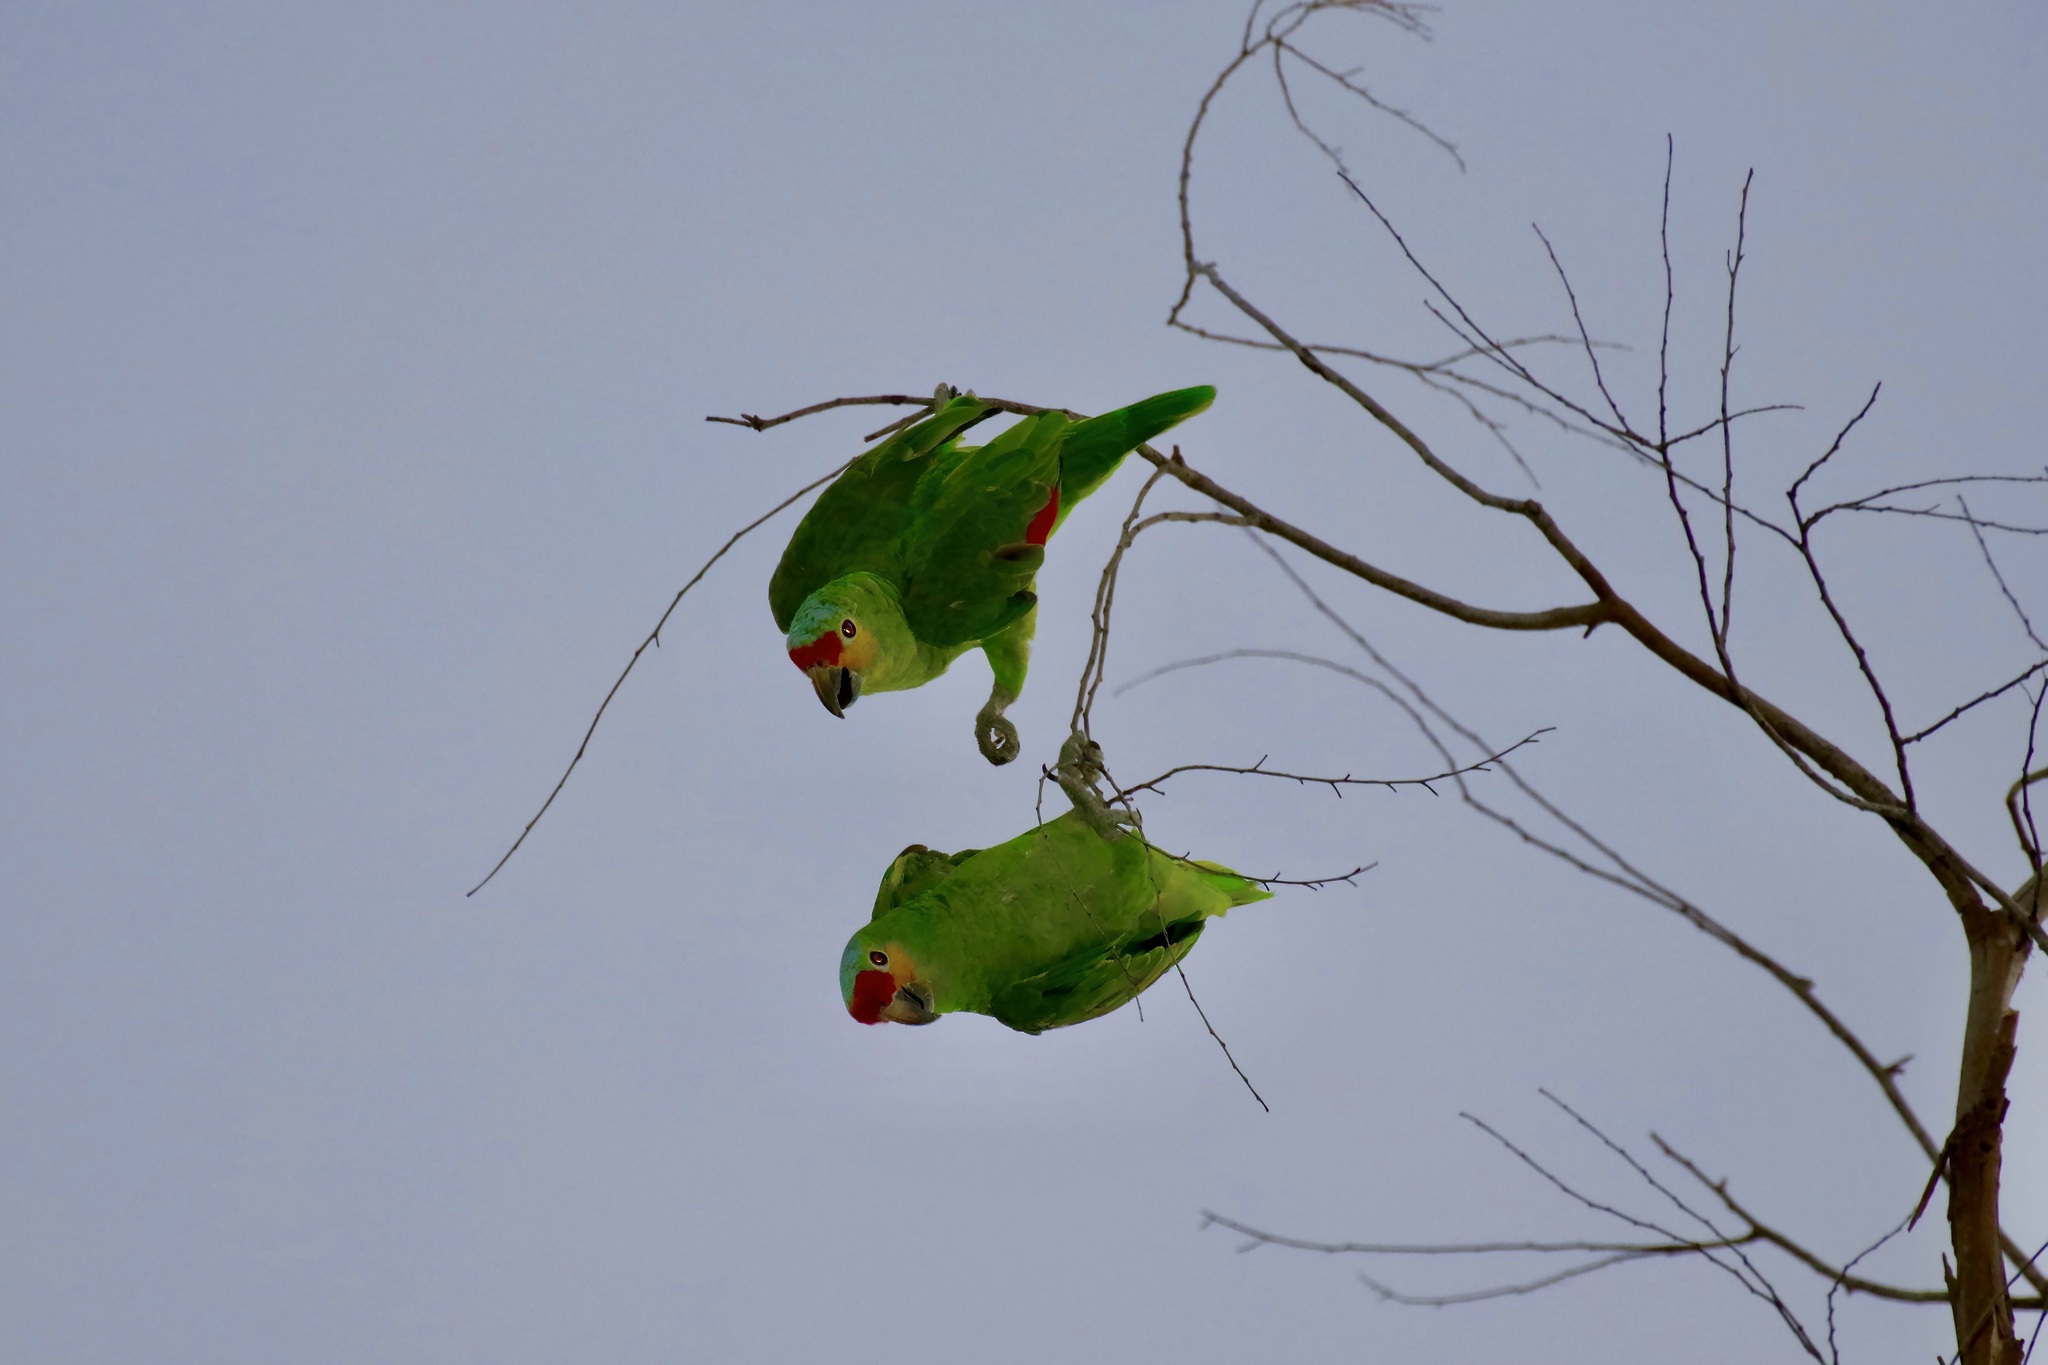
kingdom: Animalia
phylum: Chordata
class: Aves
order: Psittaciformes
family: Psittacidae
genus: Amazona
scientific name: Amazona autumnalis
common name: Red-lored amazon
